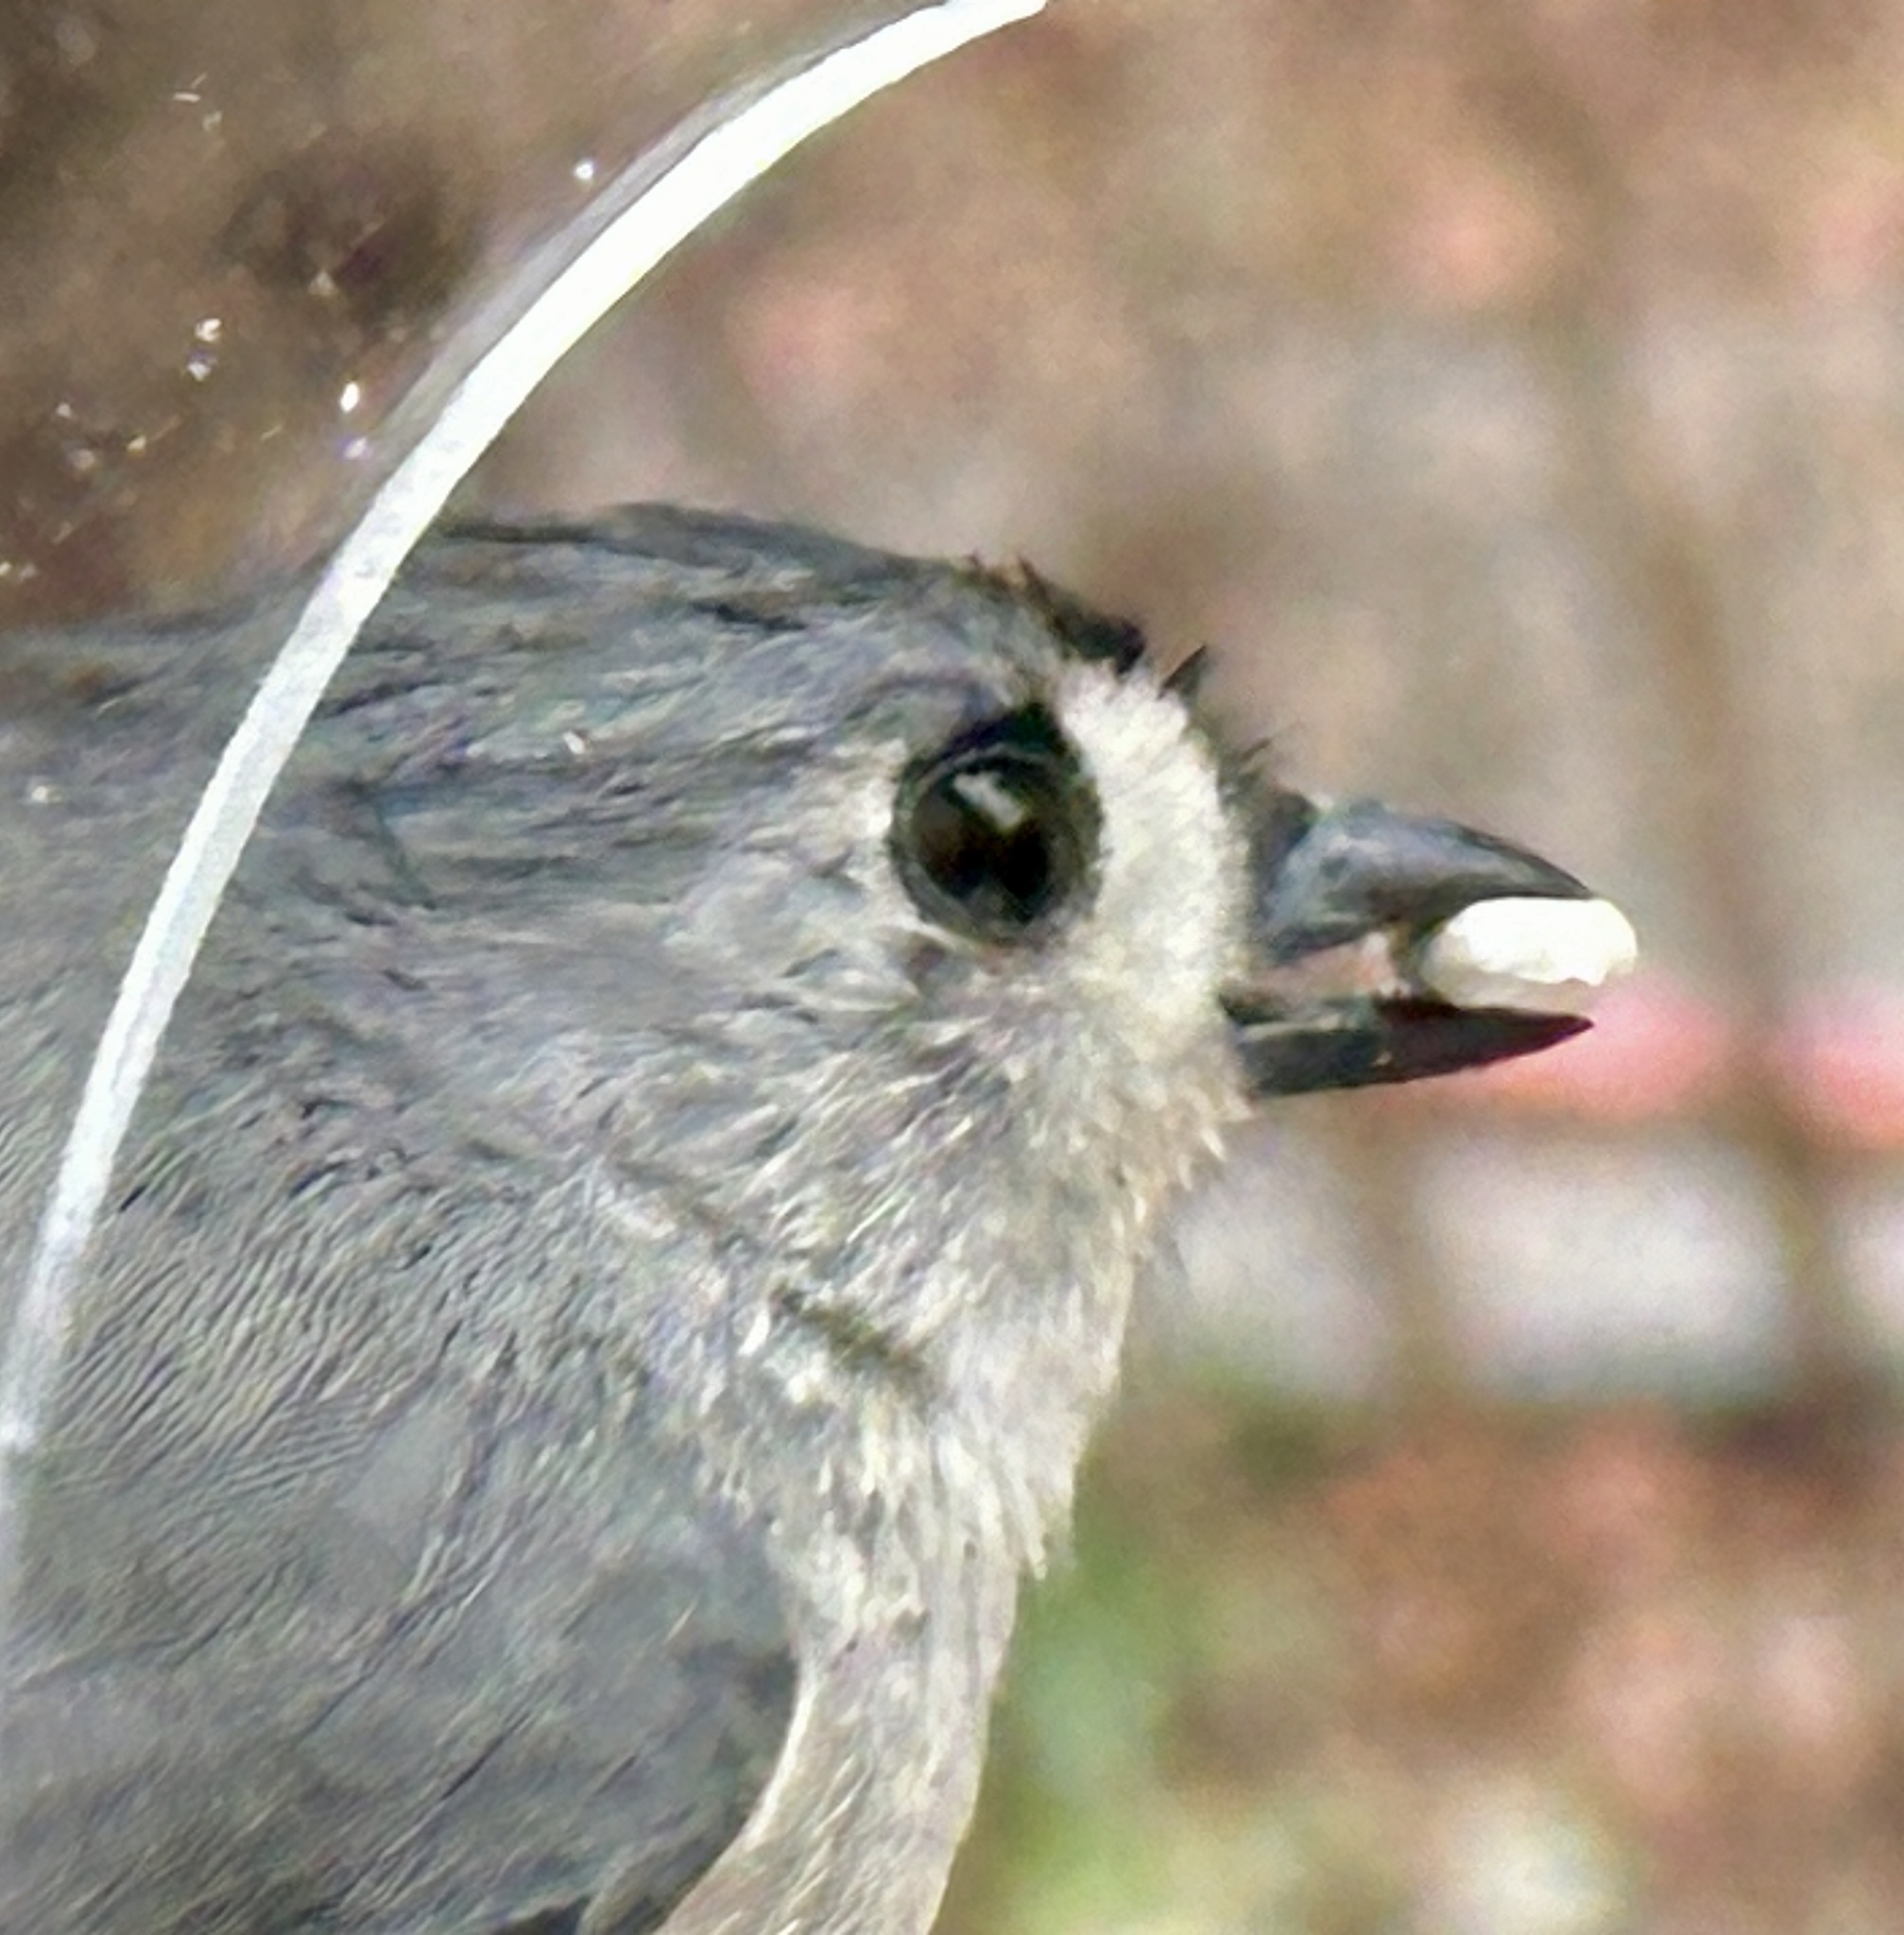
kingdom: Animalia
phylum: Chordata
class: Aves
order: Passeriformes
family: Paridae
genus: Baeolophus
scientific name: Baeolophus bicolor
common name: Tufted titmouse
